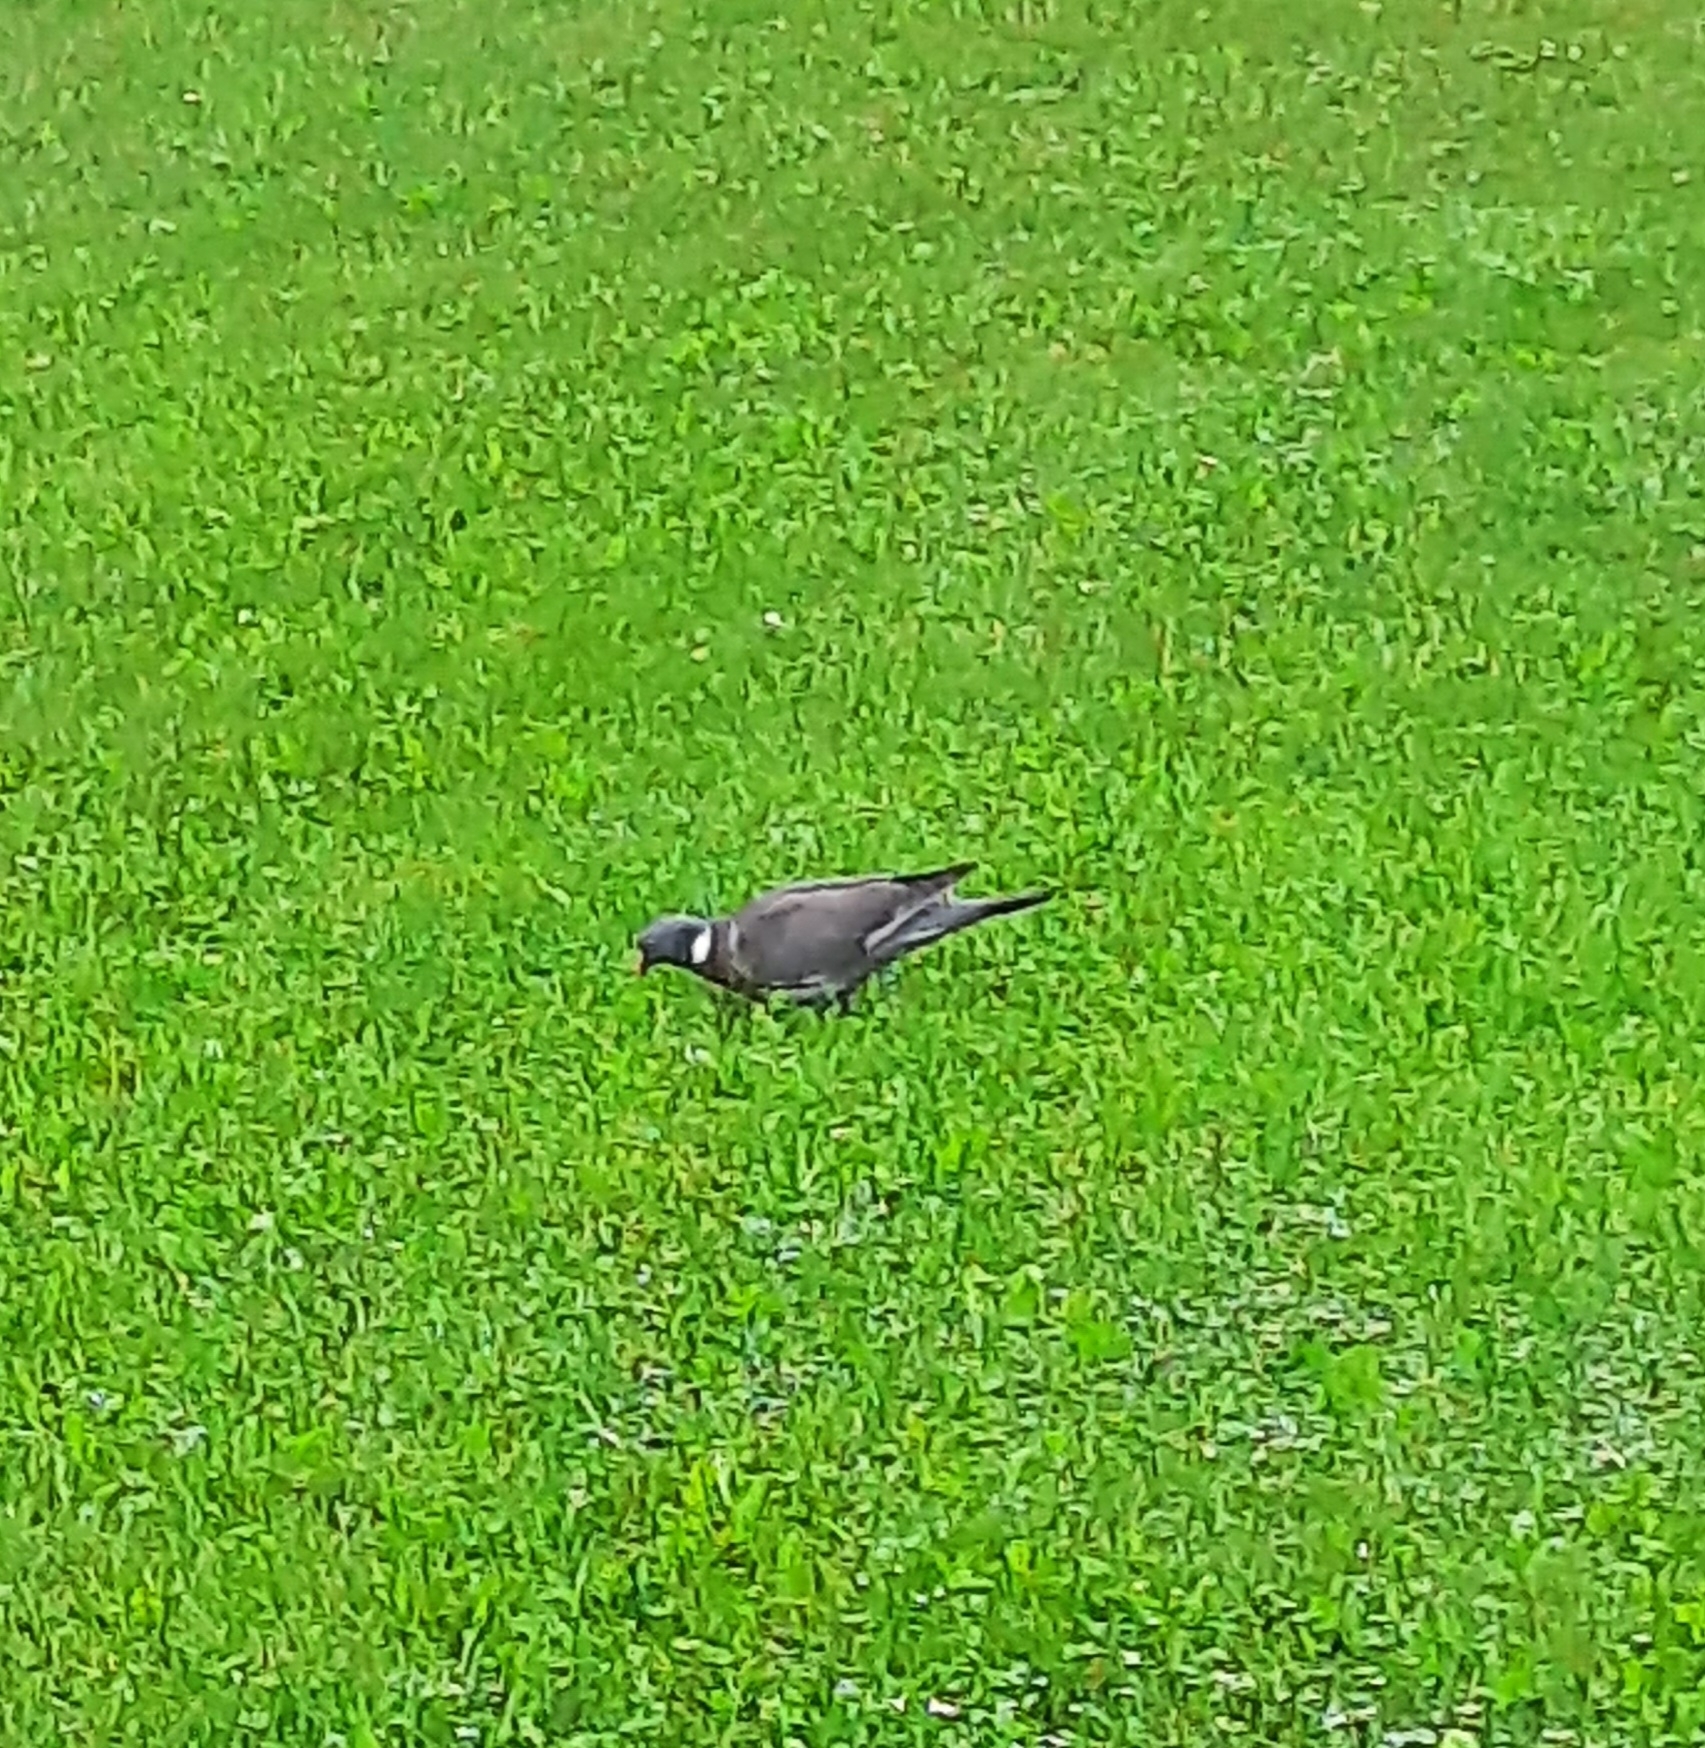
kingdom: Animalia
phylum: Chordata
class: Aves
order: Columbiformes
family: Columbidae
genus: Columba
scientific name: Columba palumbus
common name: Common wood pigeon
